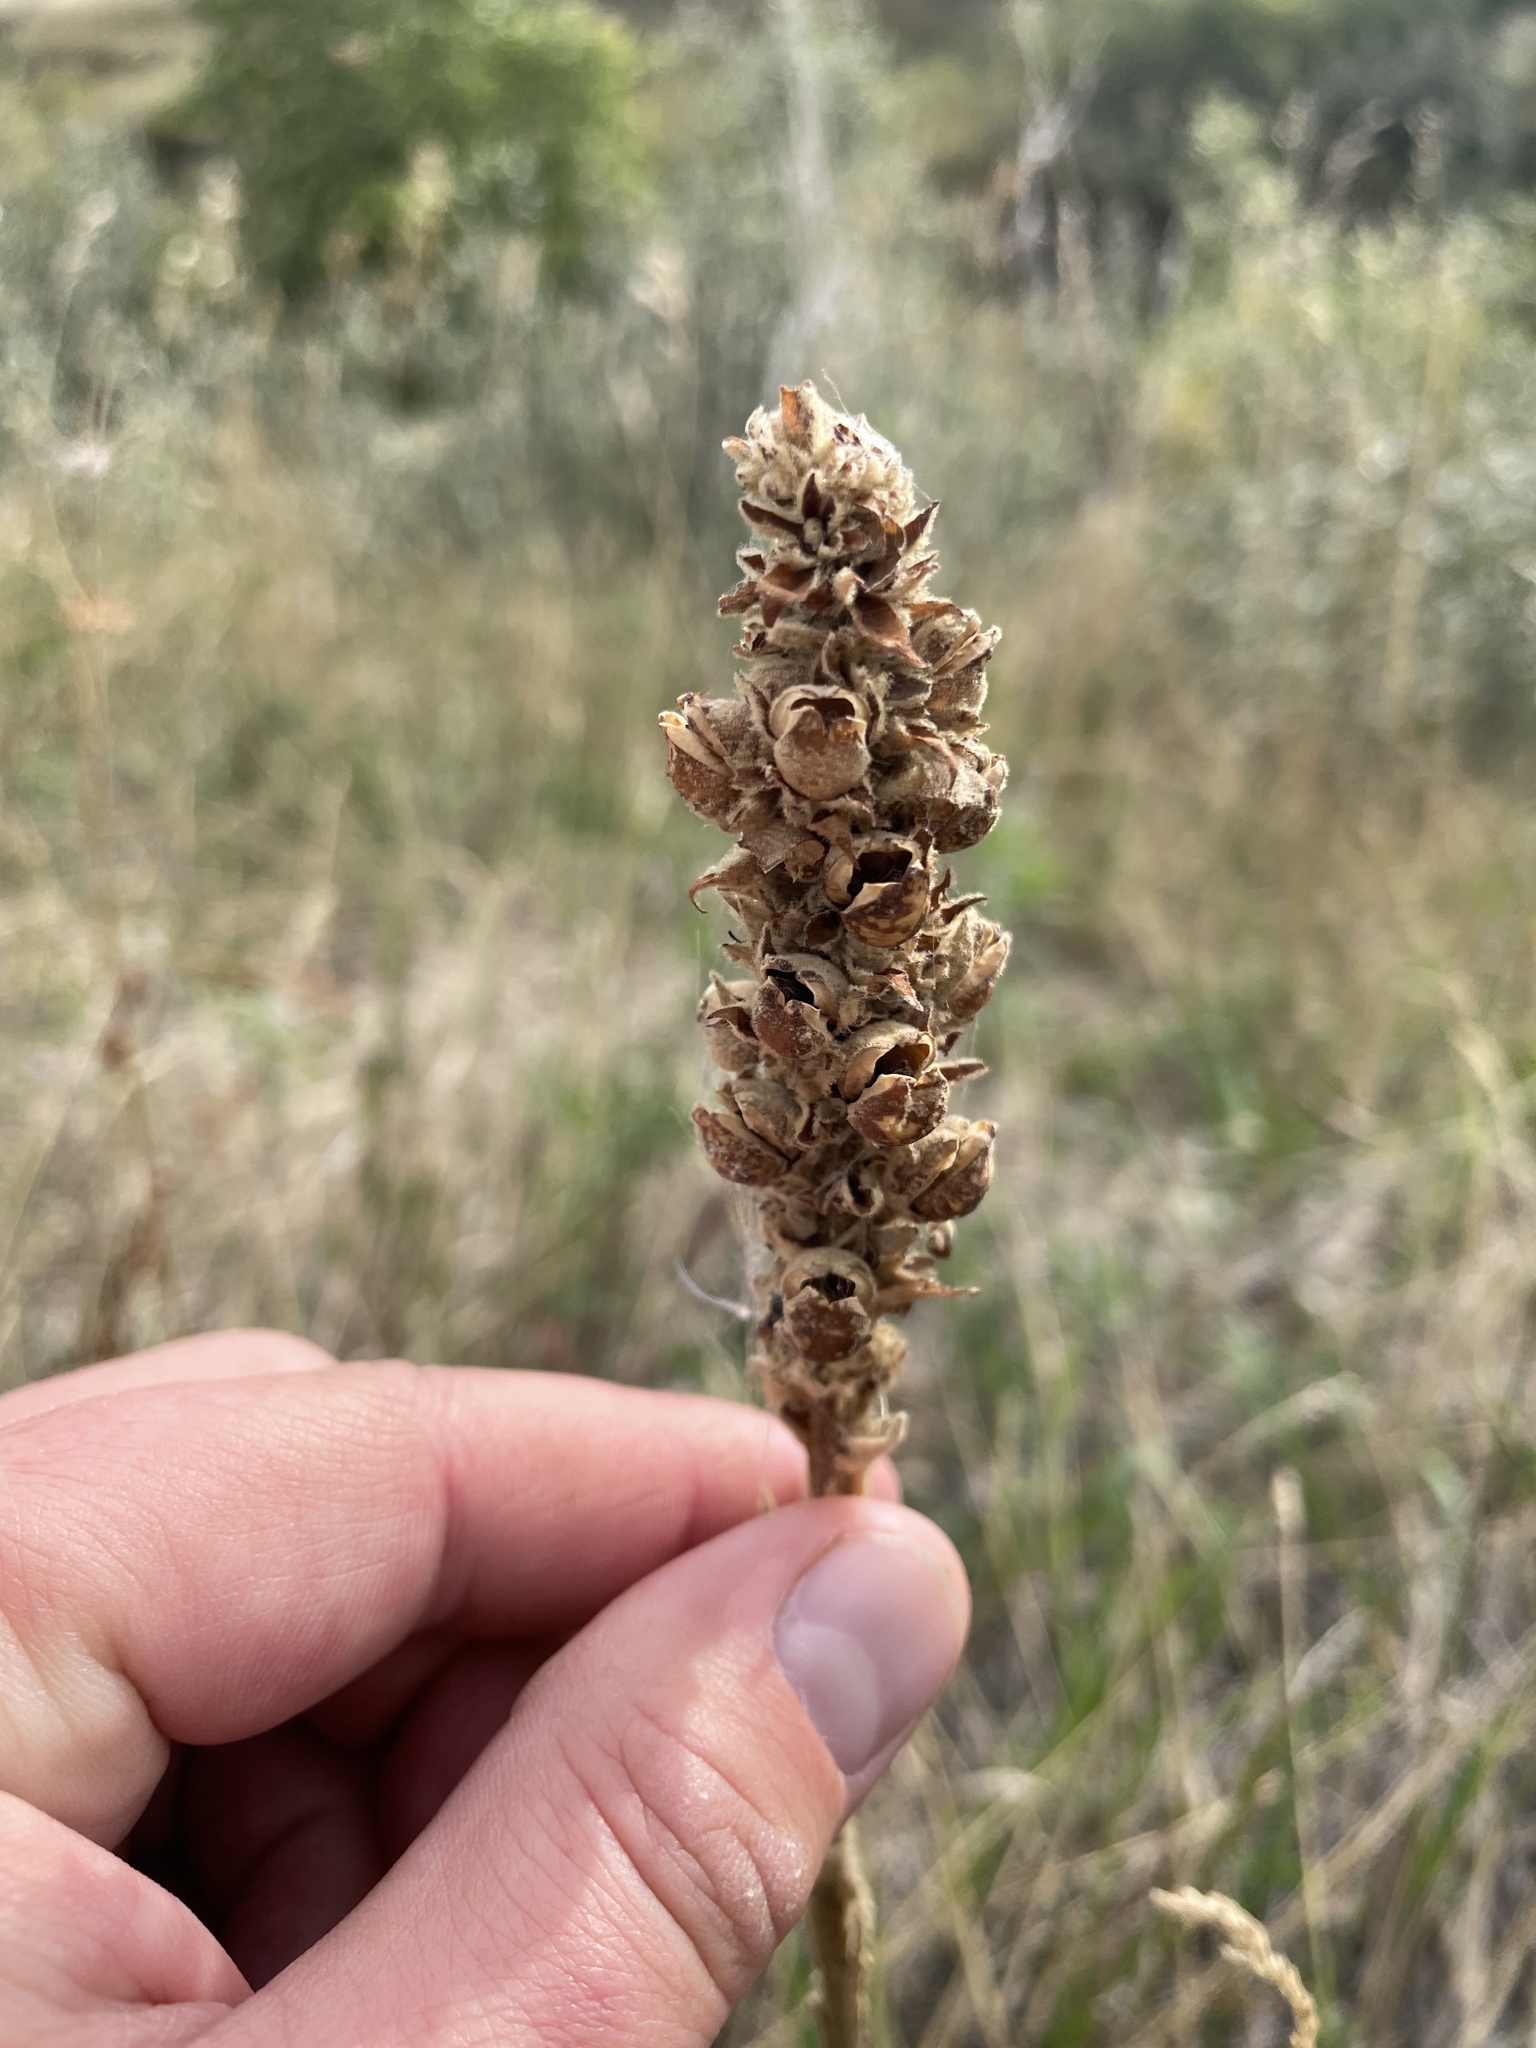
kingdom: Plantae
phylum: Tracheophyta
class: Magnoliopsida
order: Lamiales
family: Scrophulariaceae
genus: Verbascum
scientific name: Verbascum thapsus
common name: Common mullein
